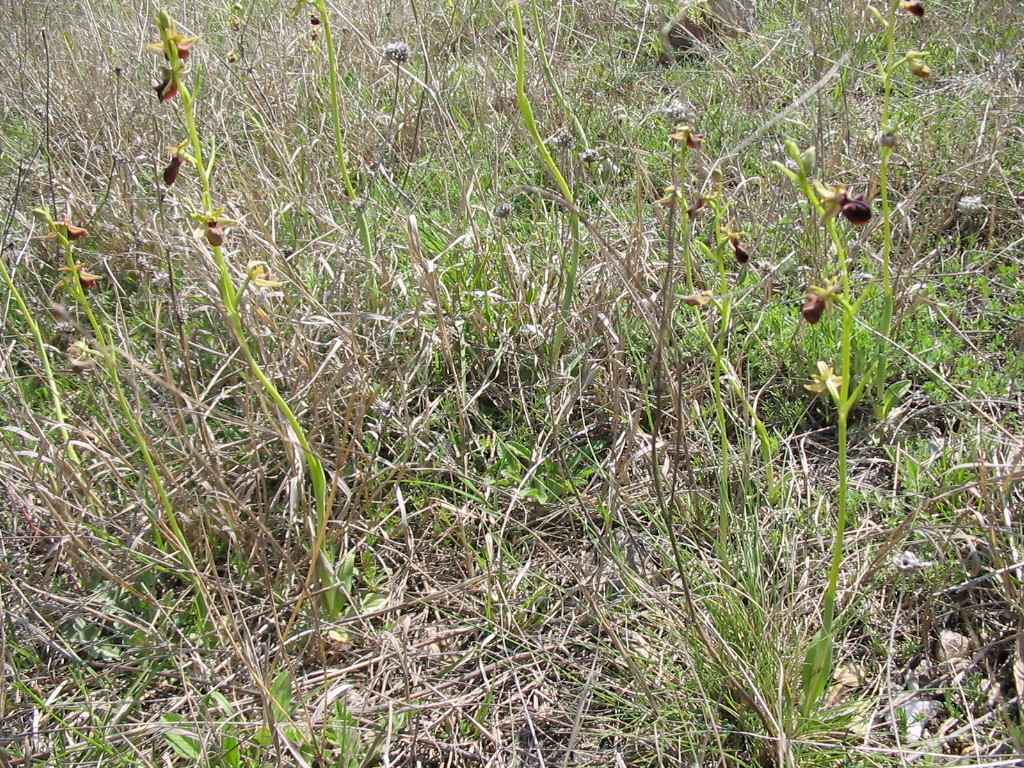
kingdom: Plantae
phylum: Tracheophyta
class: Liliopsida
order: Asparagales
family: Orchidaceae
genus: Ophrys
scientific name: Ophrys sphegodes
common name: Early spider-orchid
